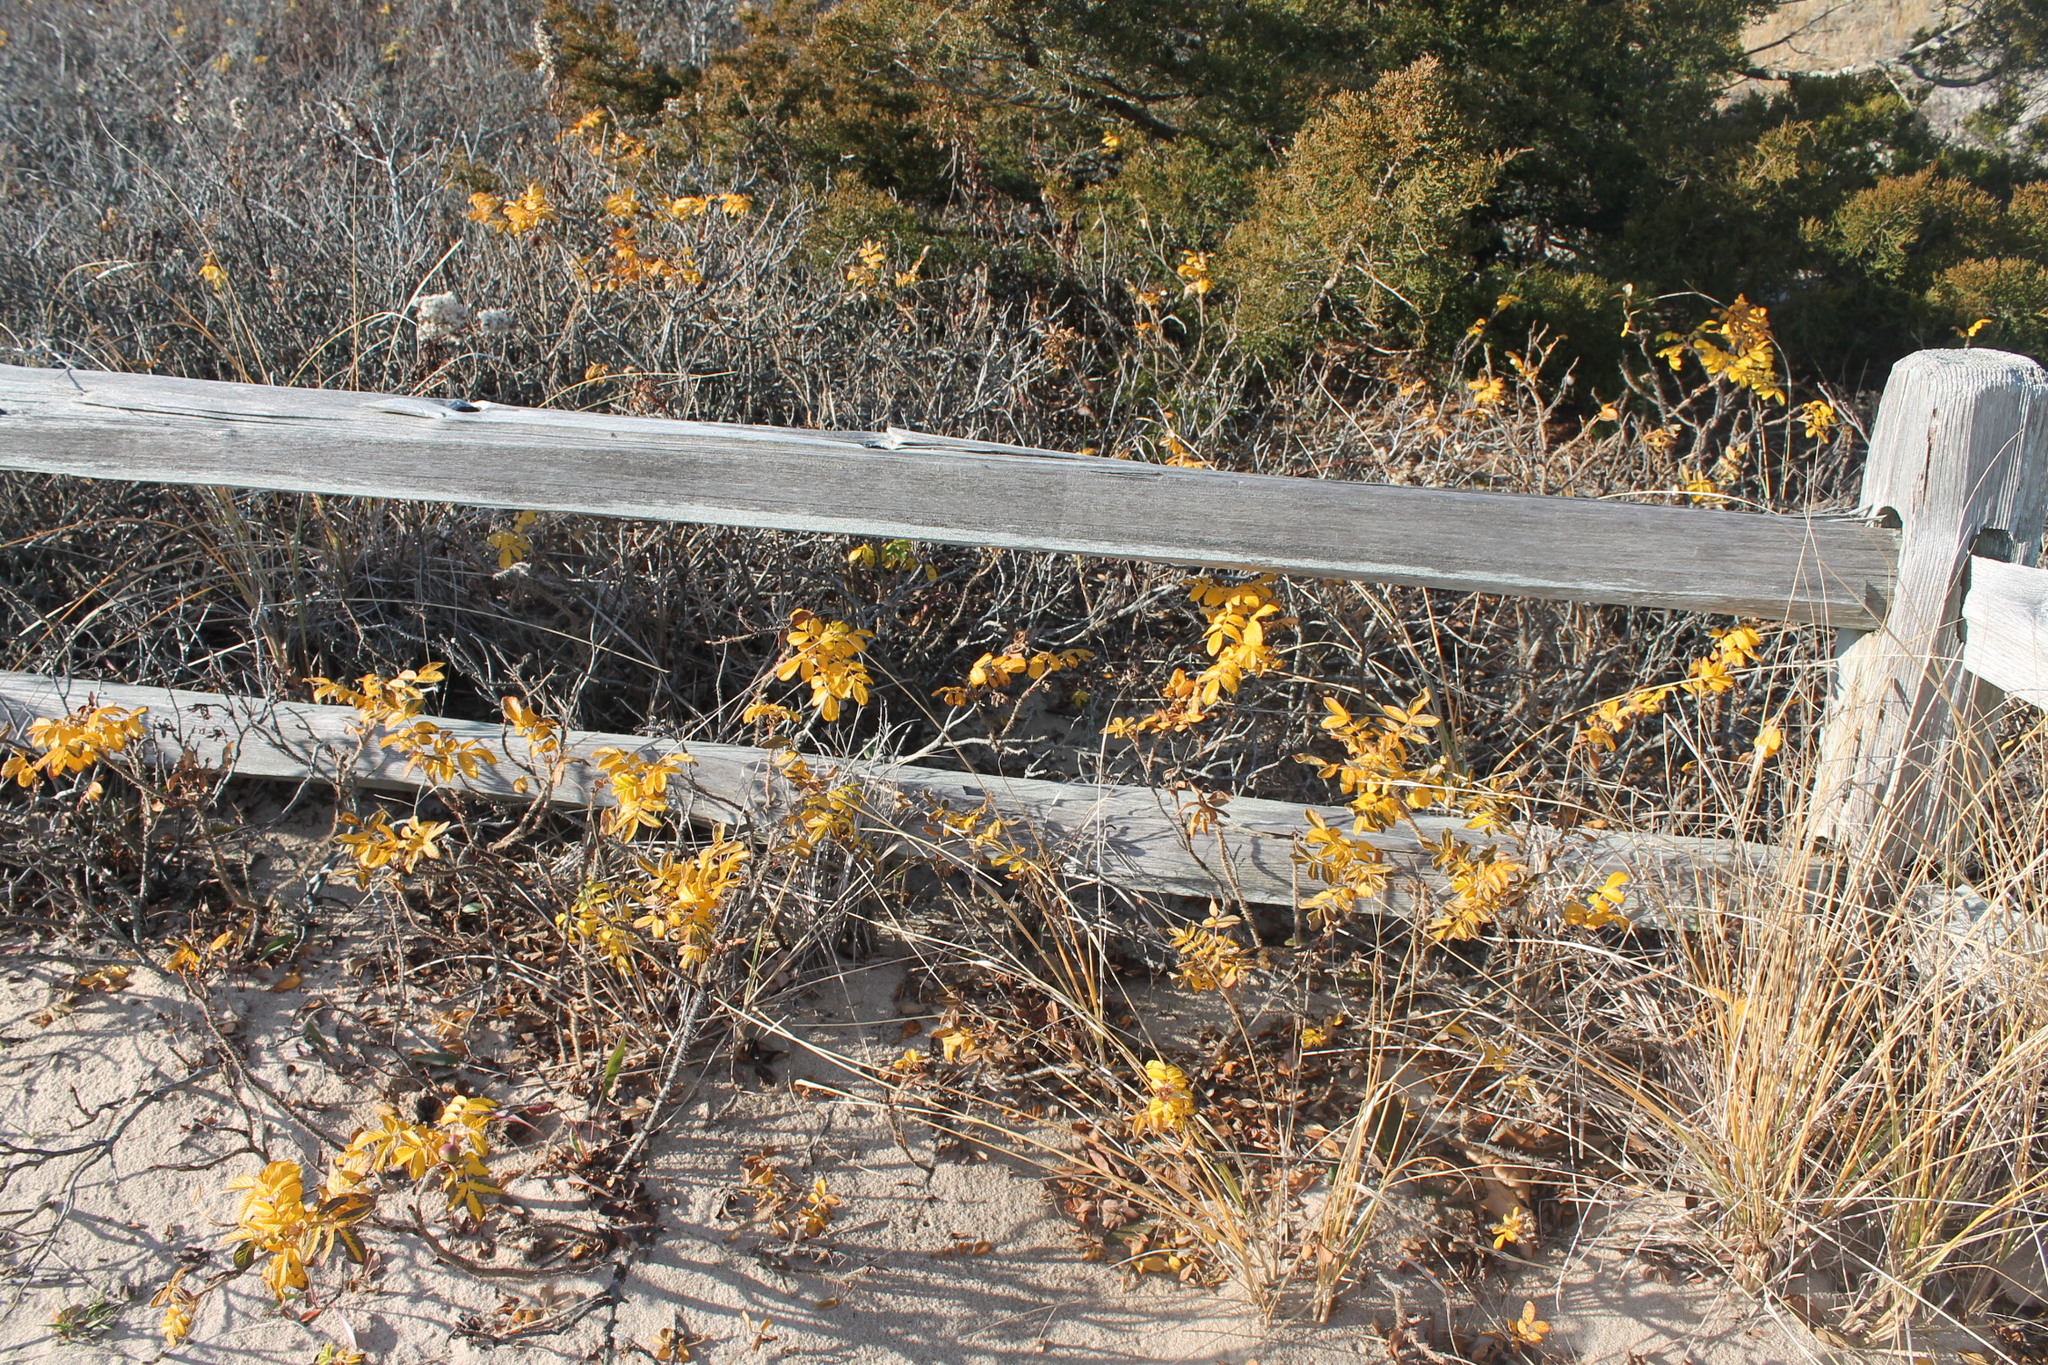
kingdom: Plantae
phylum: Tracheophyta
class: Magnoliopsida
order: Rosales
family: Rosaceae
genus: Rosa
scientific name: Rosa rugosa
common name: Japanese rose
